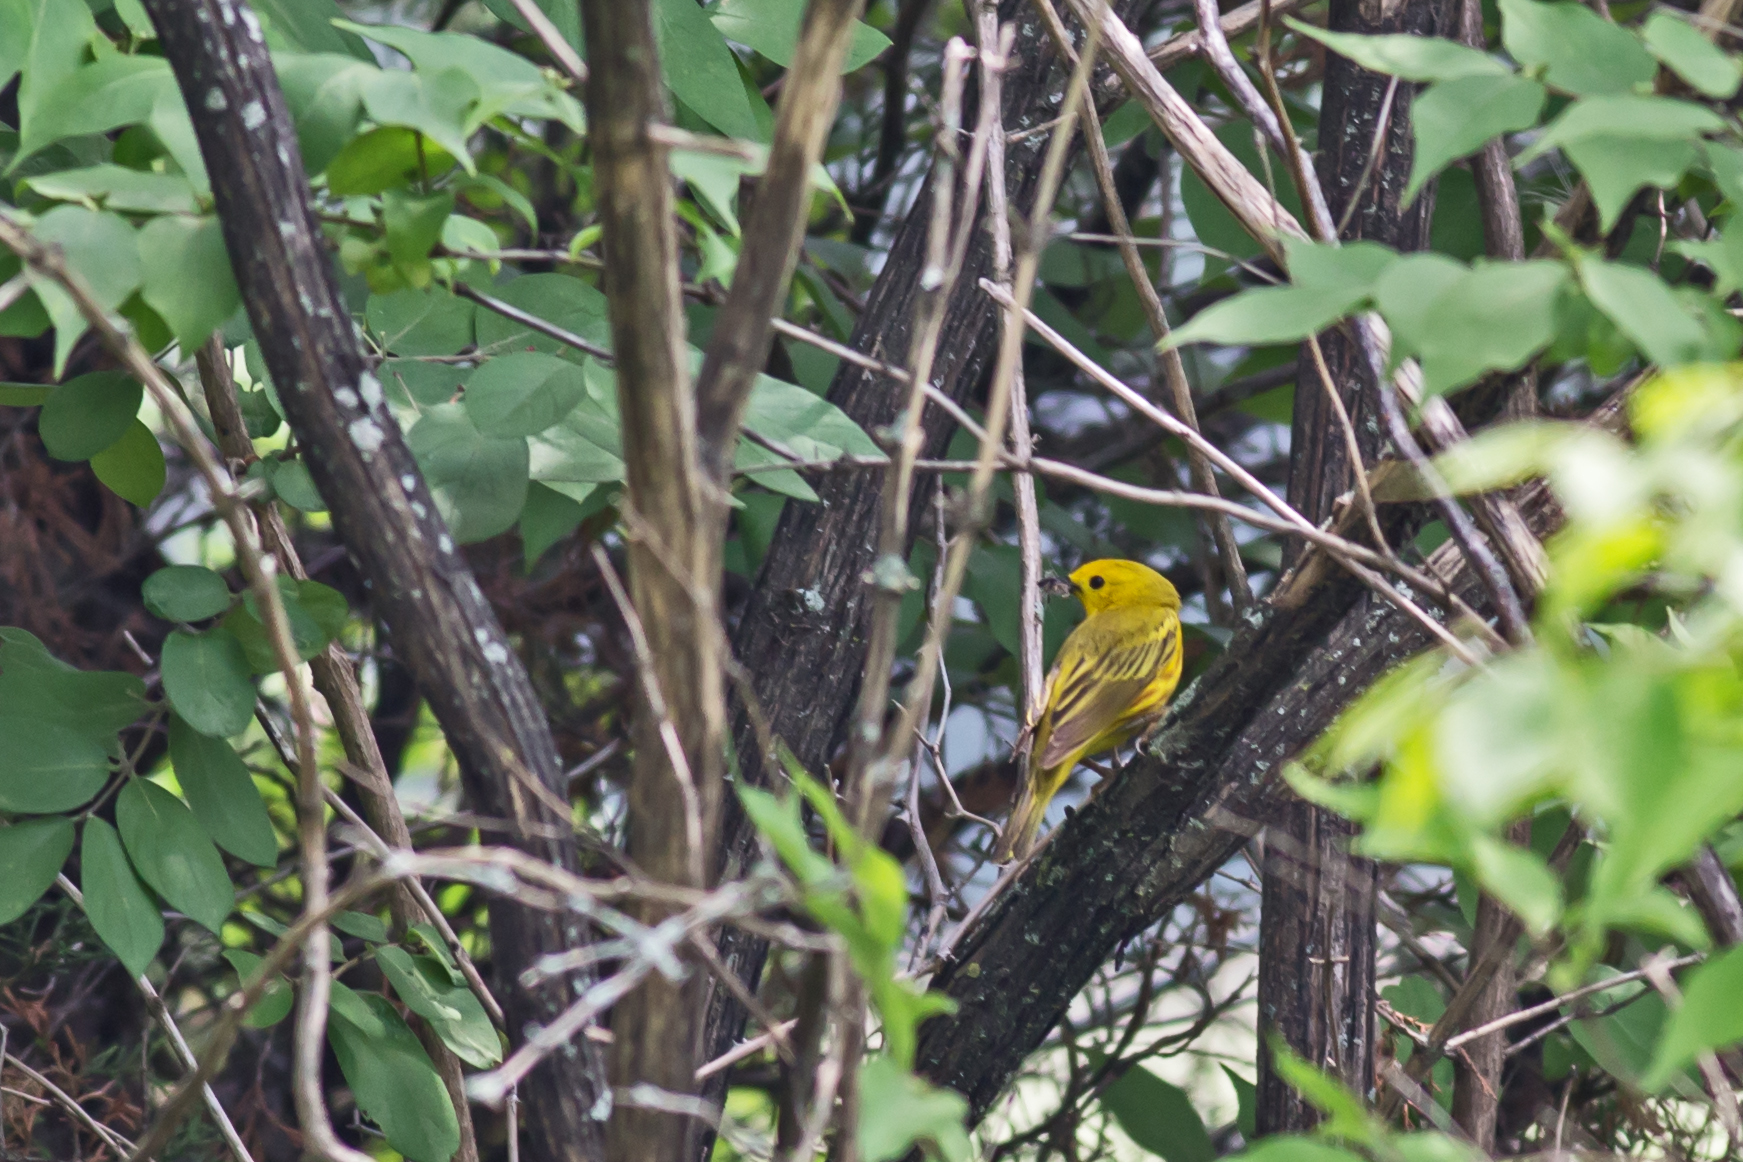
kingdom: Animalia
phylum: Chordata
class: Aves
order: Passeriformes
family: Parulidae
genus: Setophaga
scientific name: Setophaga petechia
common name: Yellow warbler
